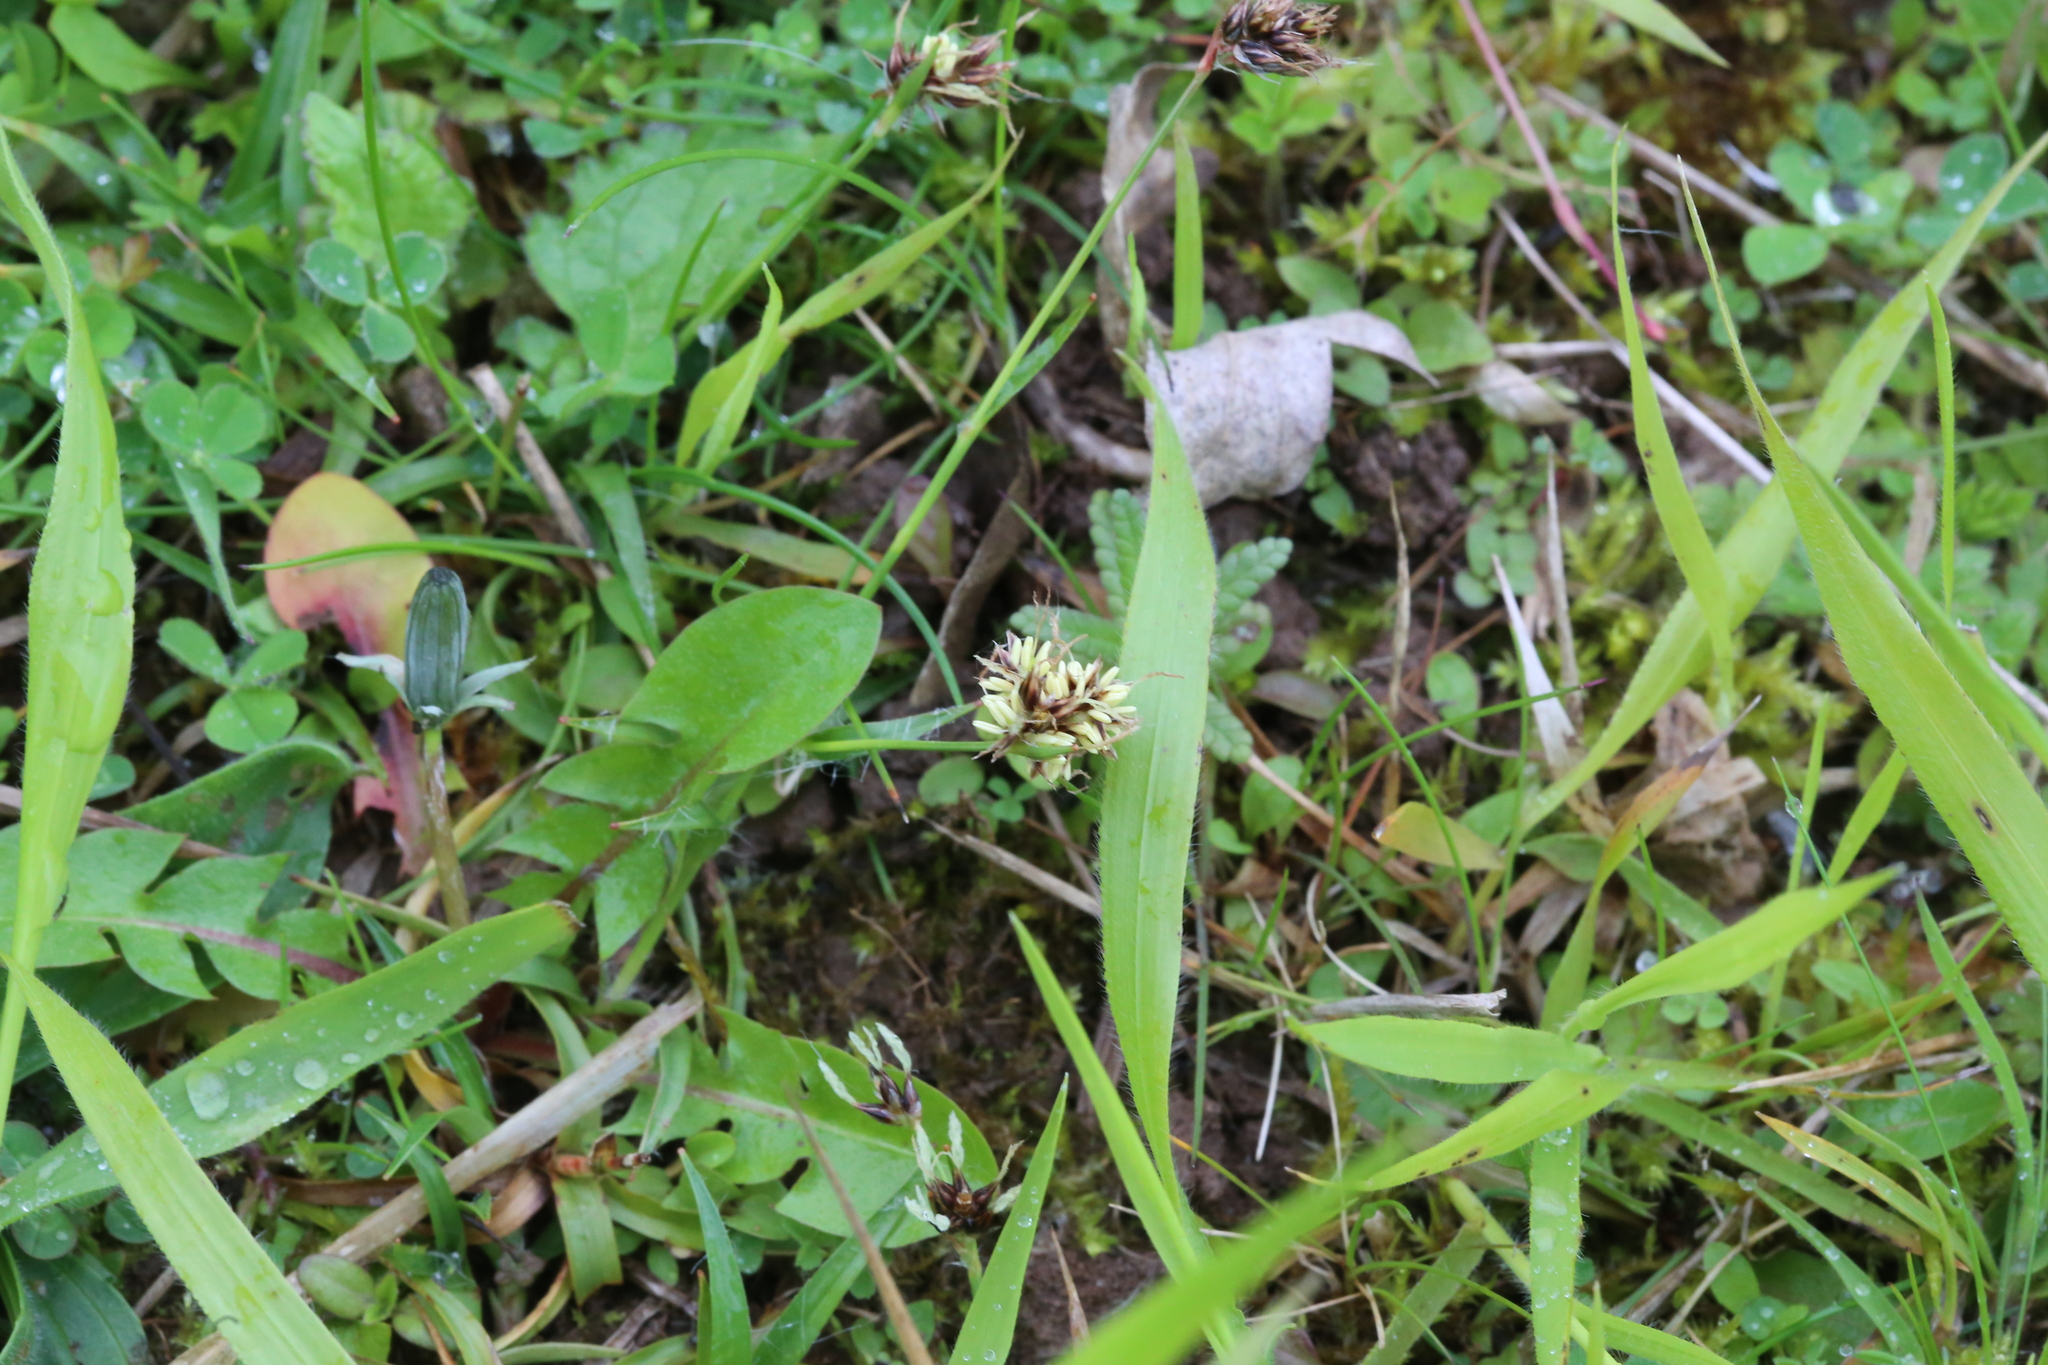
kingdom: Plantae
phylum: Tracheophyta
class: Liliopsida
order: Poales
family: Juncaceae
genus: Luzula
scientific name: Luzula campestris
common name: Field wood-rush
